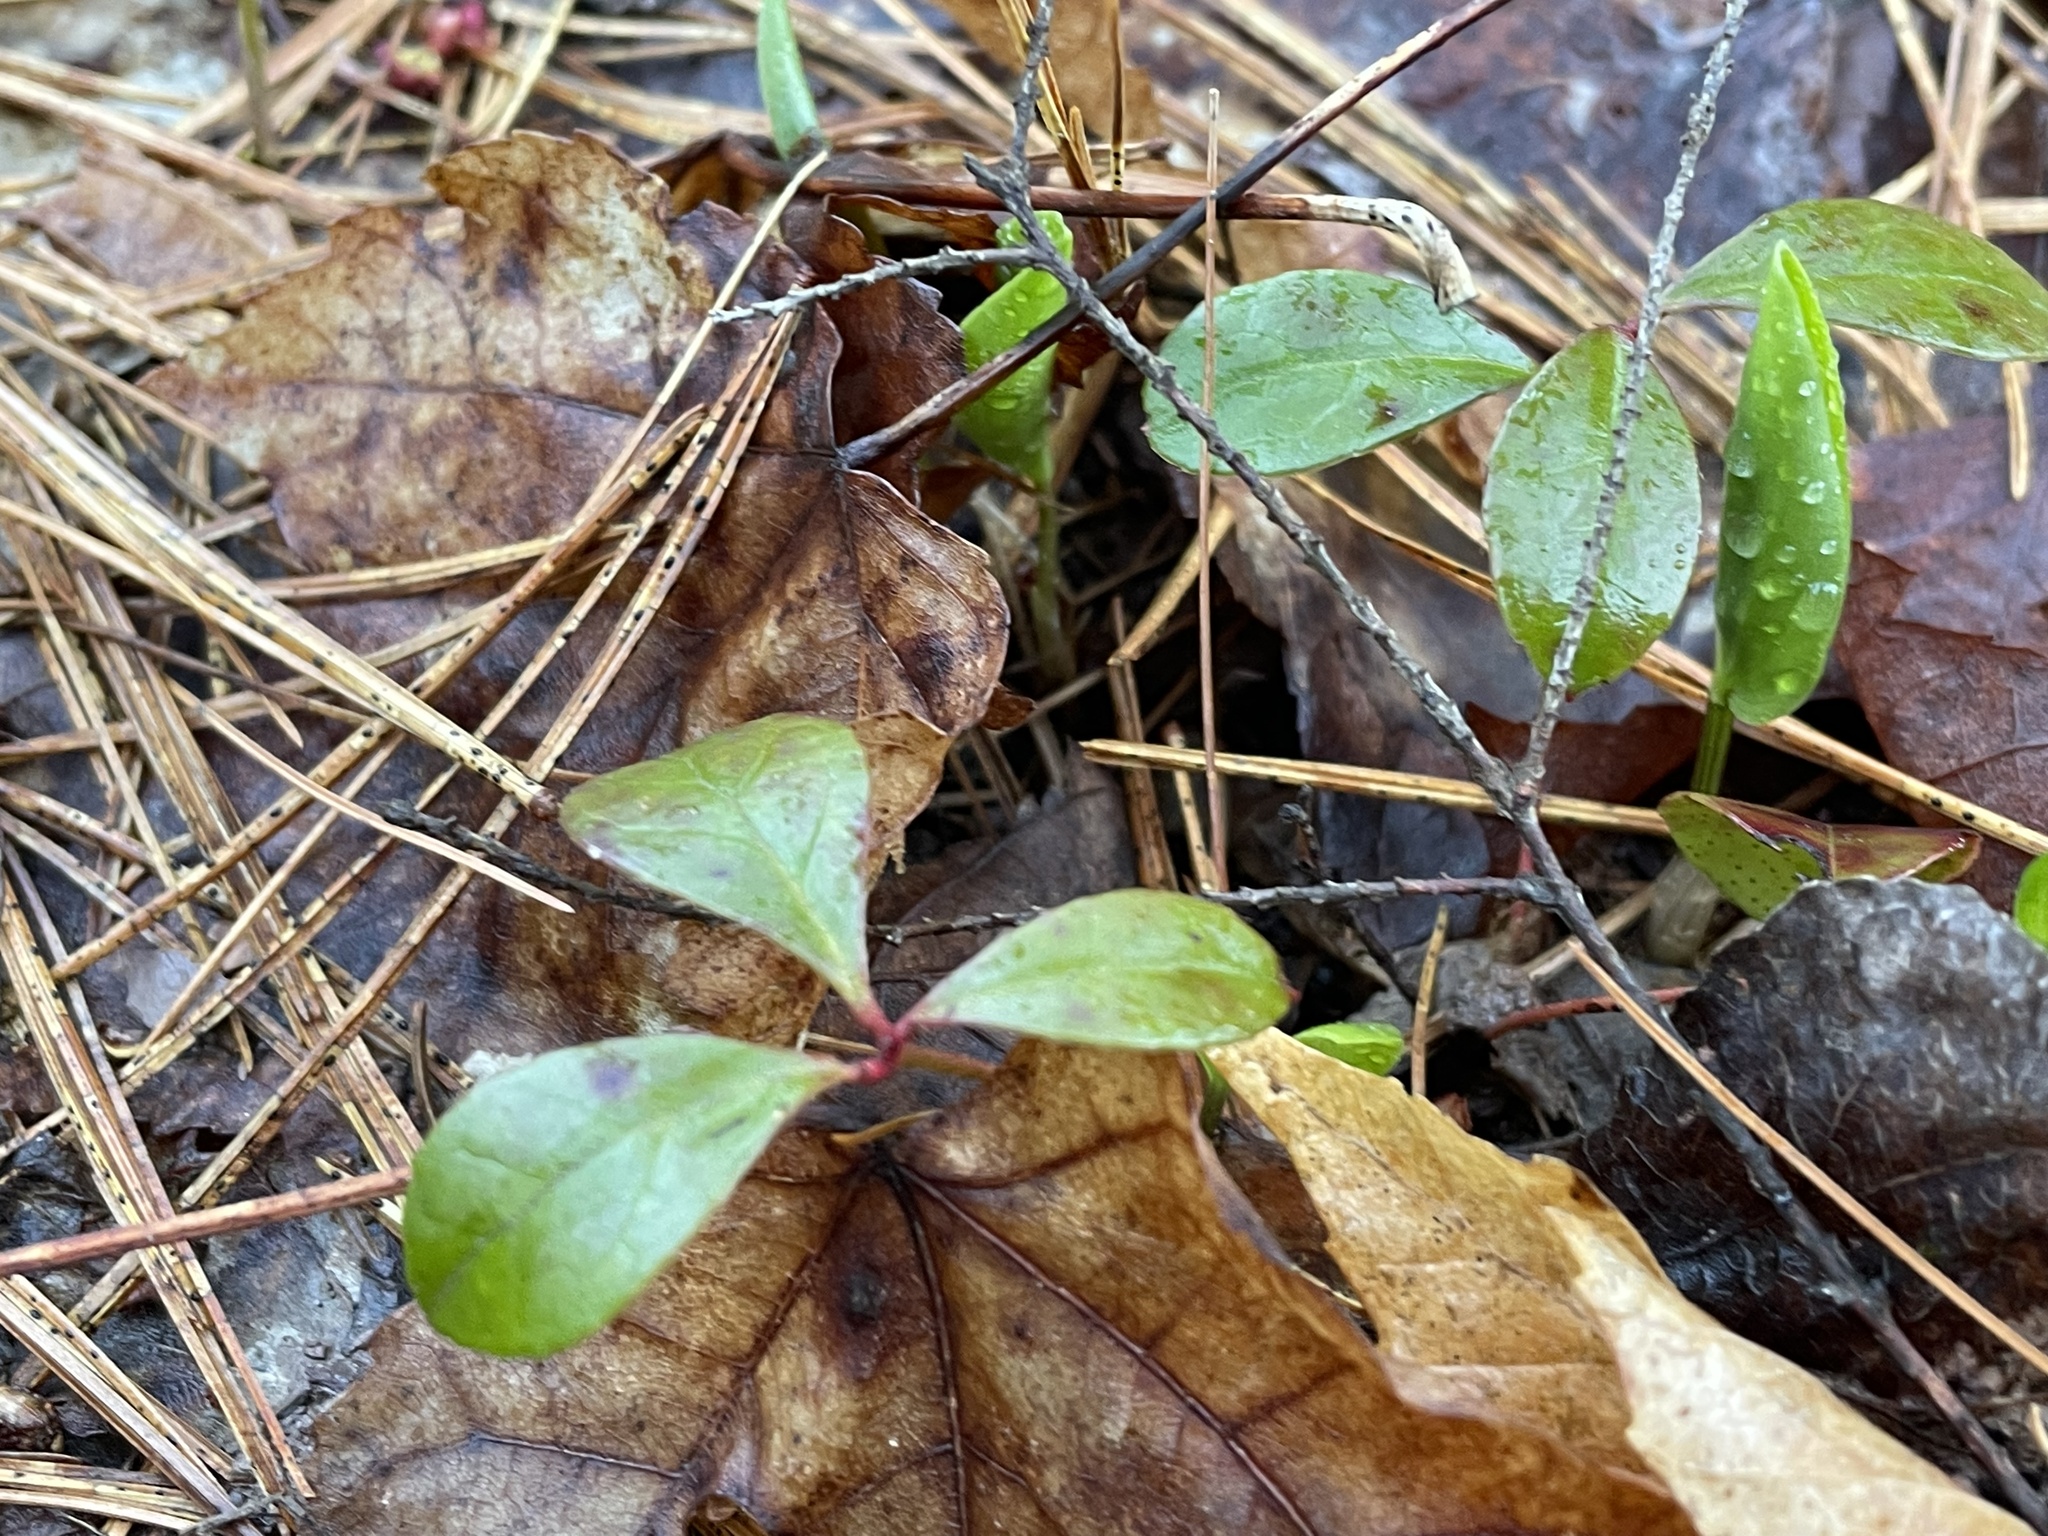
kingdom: Plantae
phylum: Tracheophyta
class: Magnoliopsida
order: Ericales
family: Ericaceae
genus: Gaultheria
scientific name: Gaultheria procumbens
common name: Checkerberry
